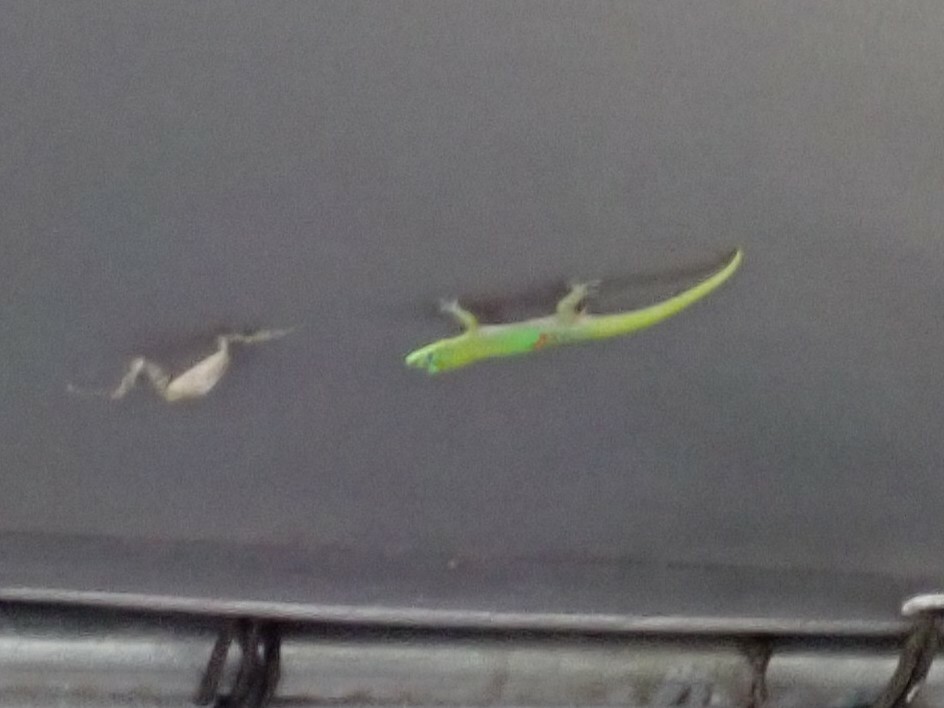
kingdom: Animalia
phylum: Chordata
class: Squamata
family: Gekkonidae
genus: Phelsuma
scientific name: Phelsuma laticauda
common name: Gold dust day gecko
